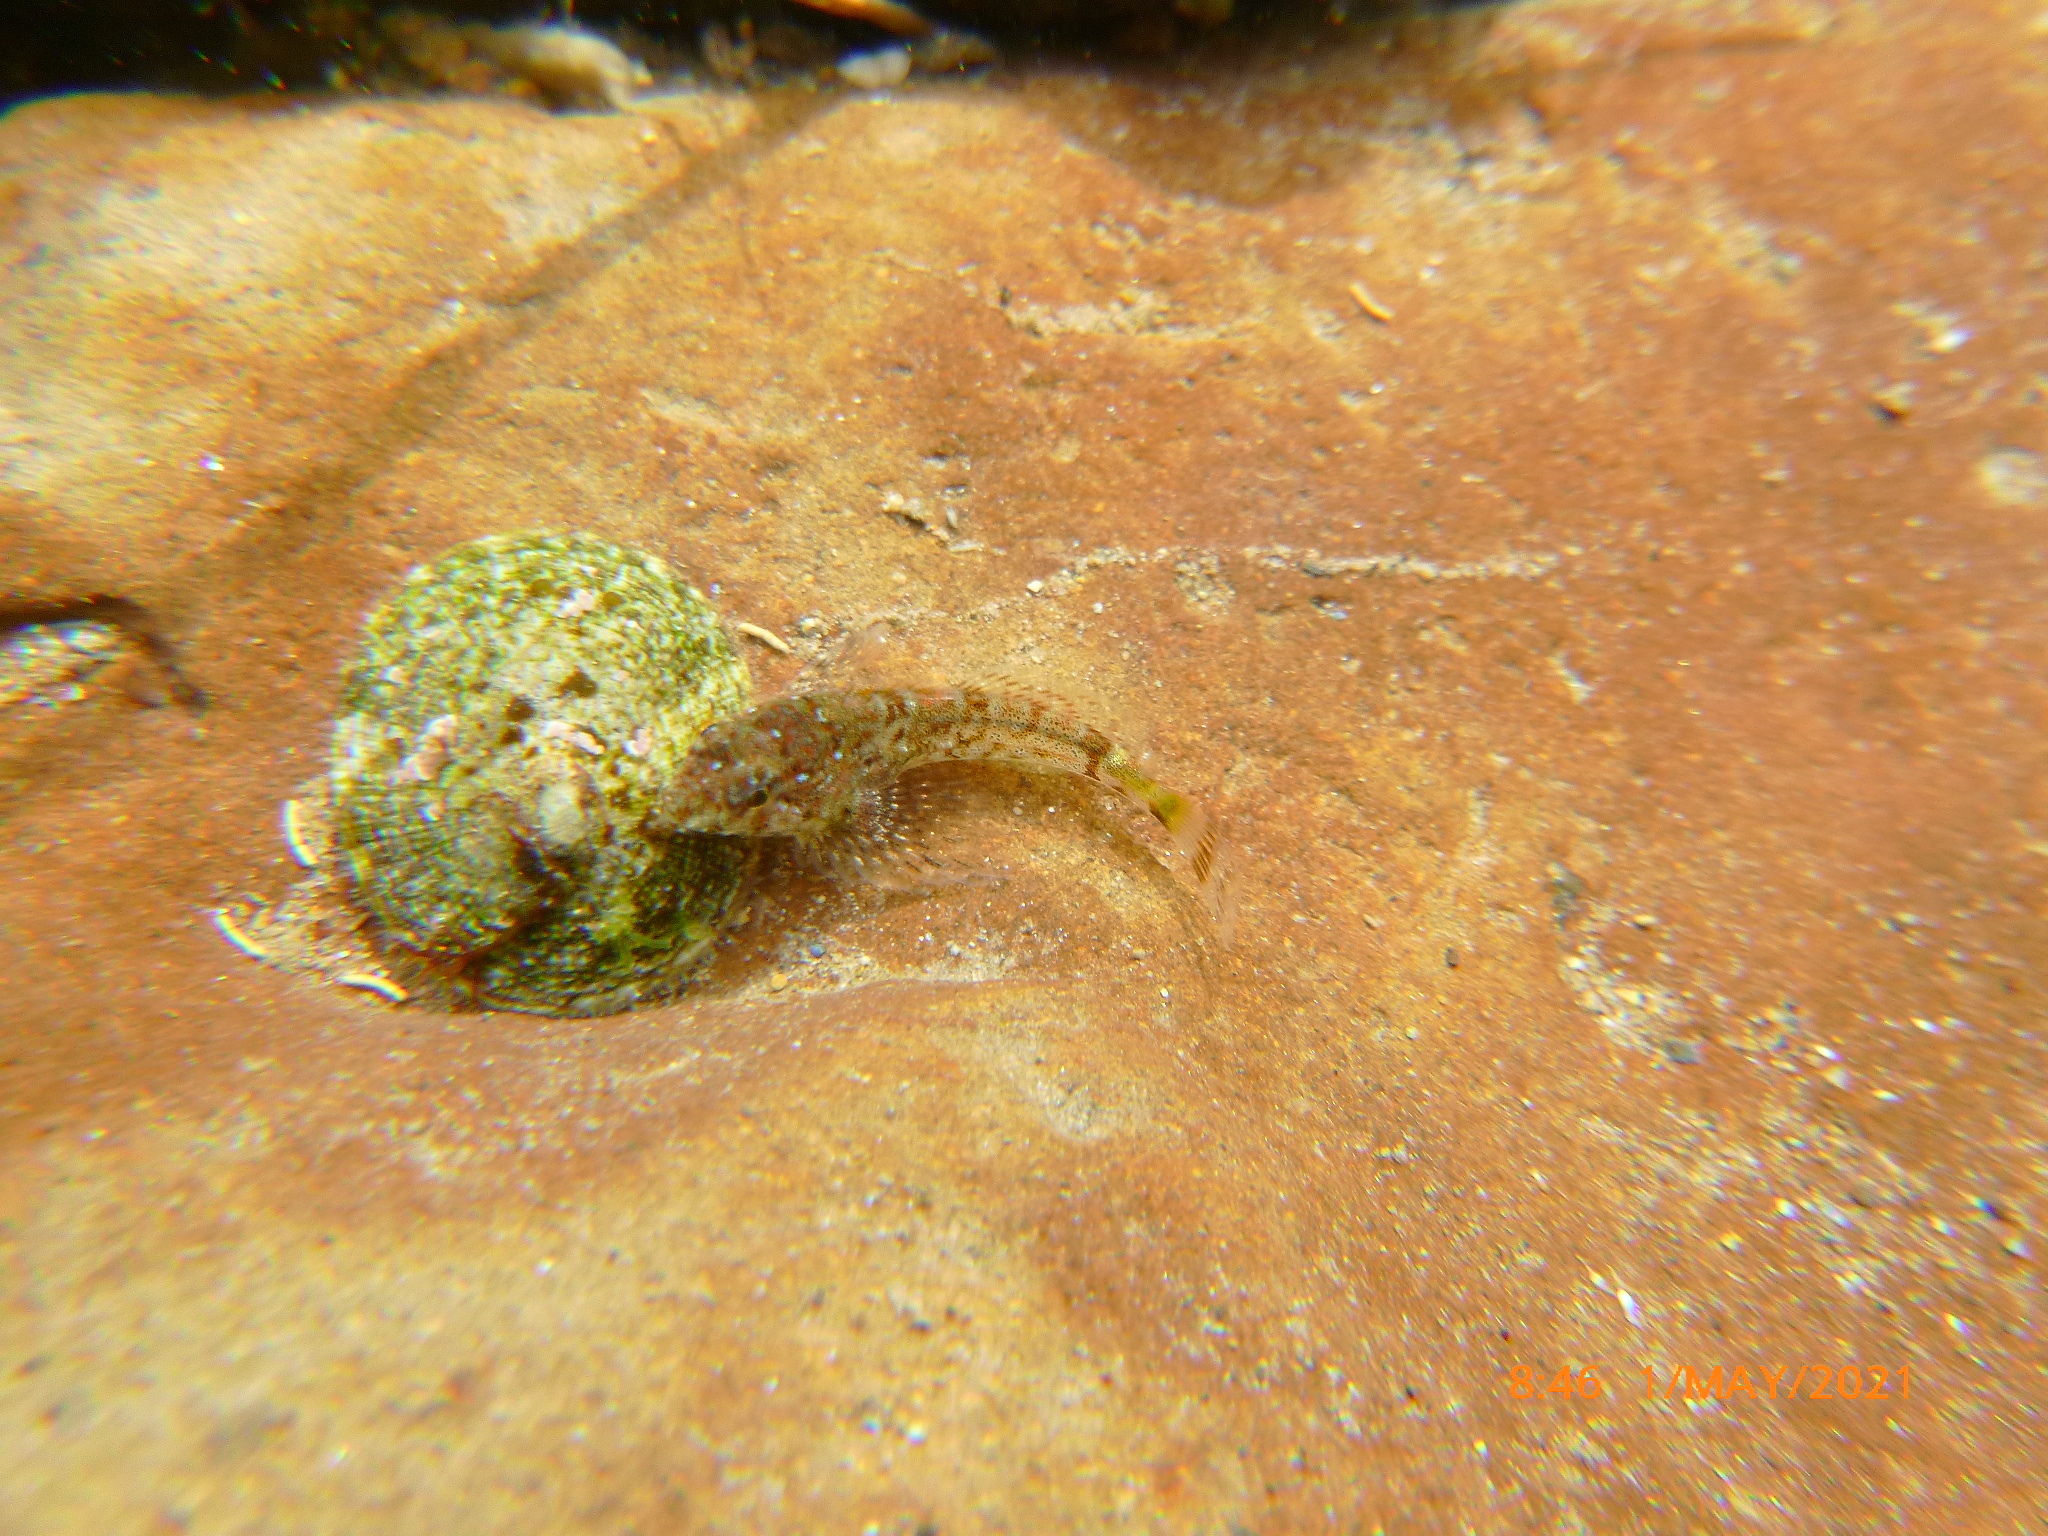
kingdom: Animalia
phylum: Chordata
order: Scorpaeniformes
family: Cottidae
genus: Clinocottus
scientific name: Clinocottus analis
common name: Woolly sculpin
